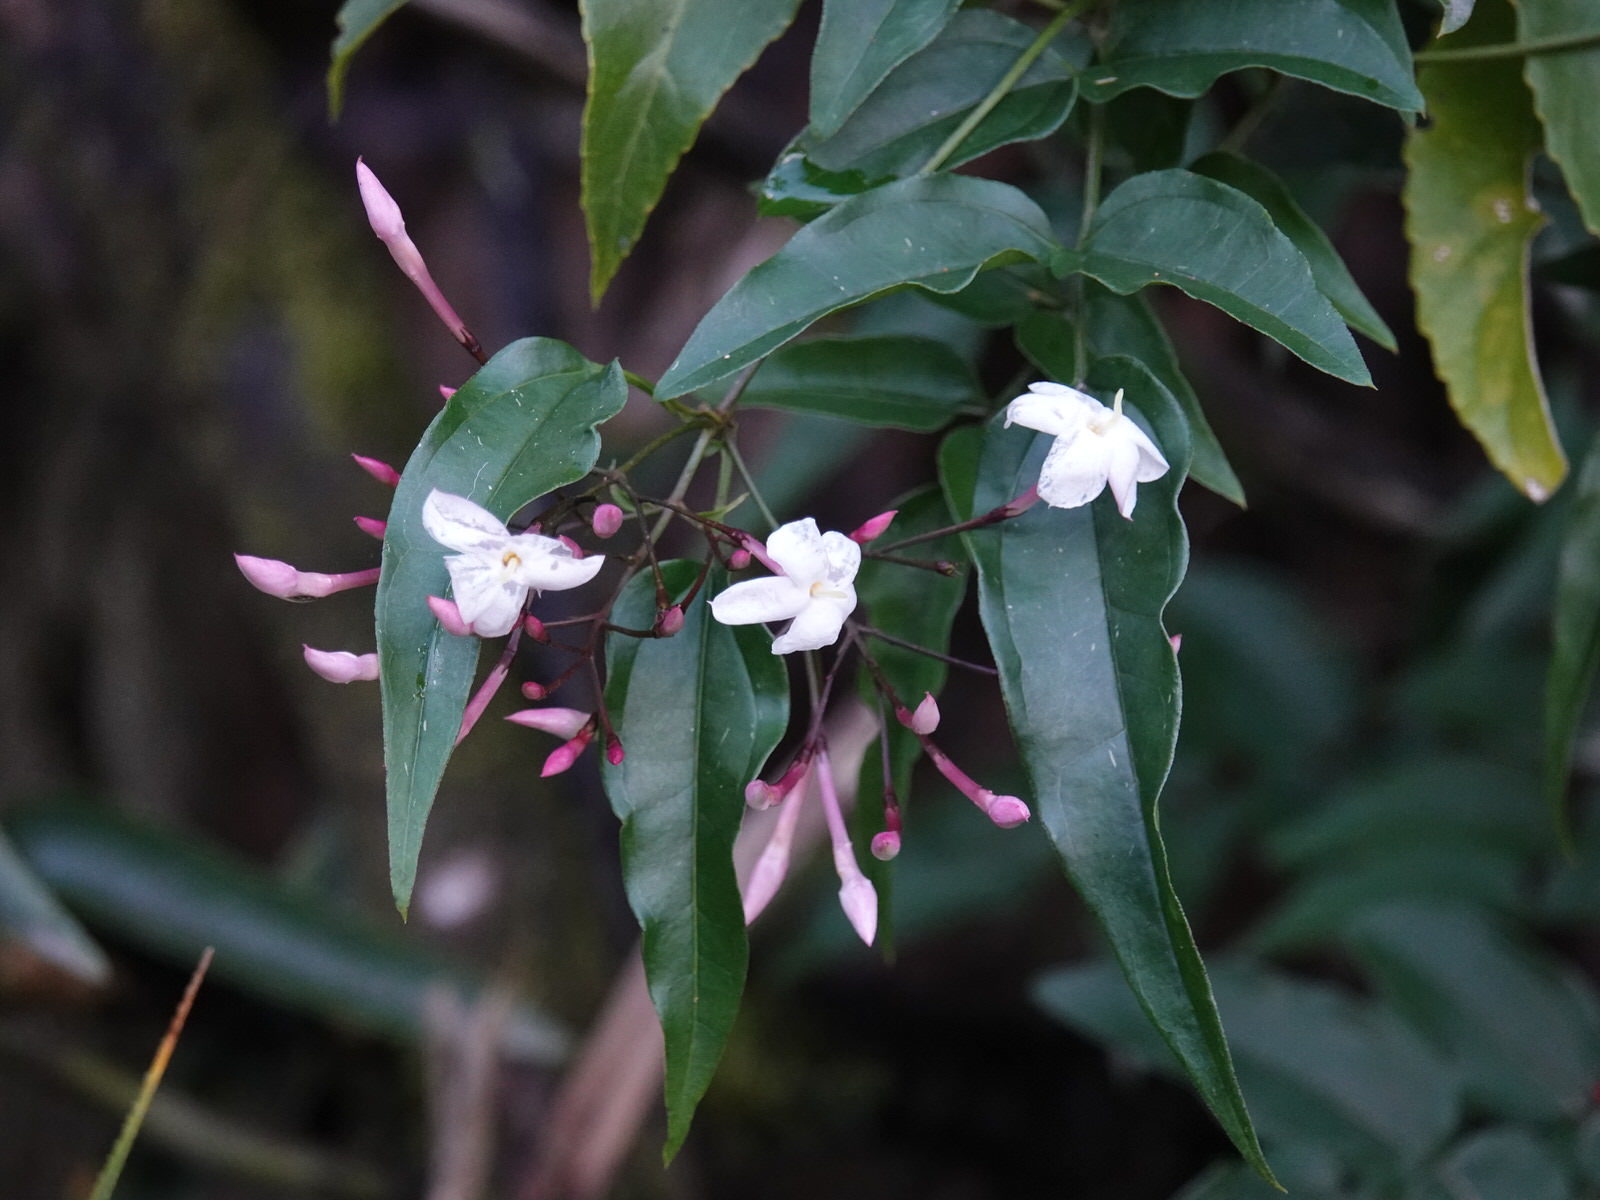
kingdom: Plantae
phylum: Tracheophyta
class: Magnoliopsida
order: Lamiales
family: Oleaceae
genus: Jasminum
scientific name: Jasminum polyanthum
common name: Pink jasmine
